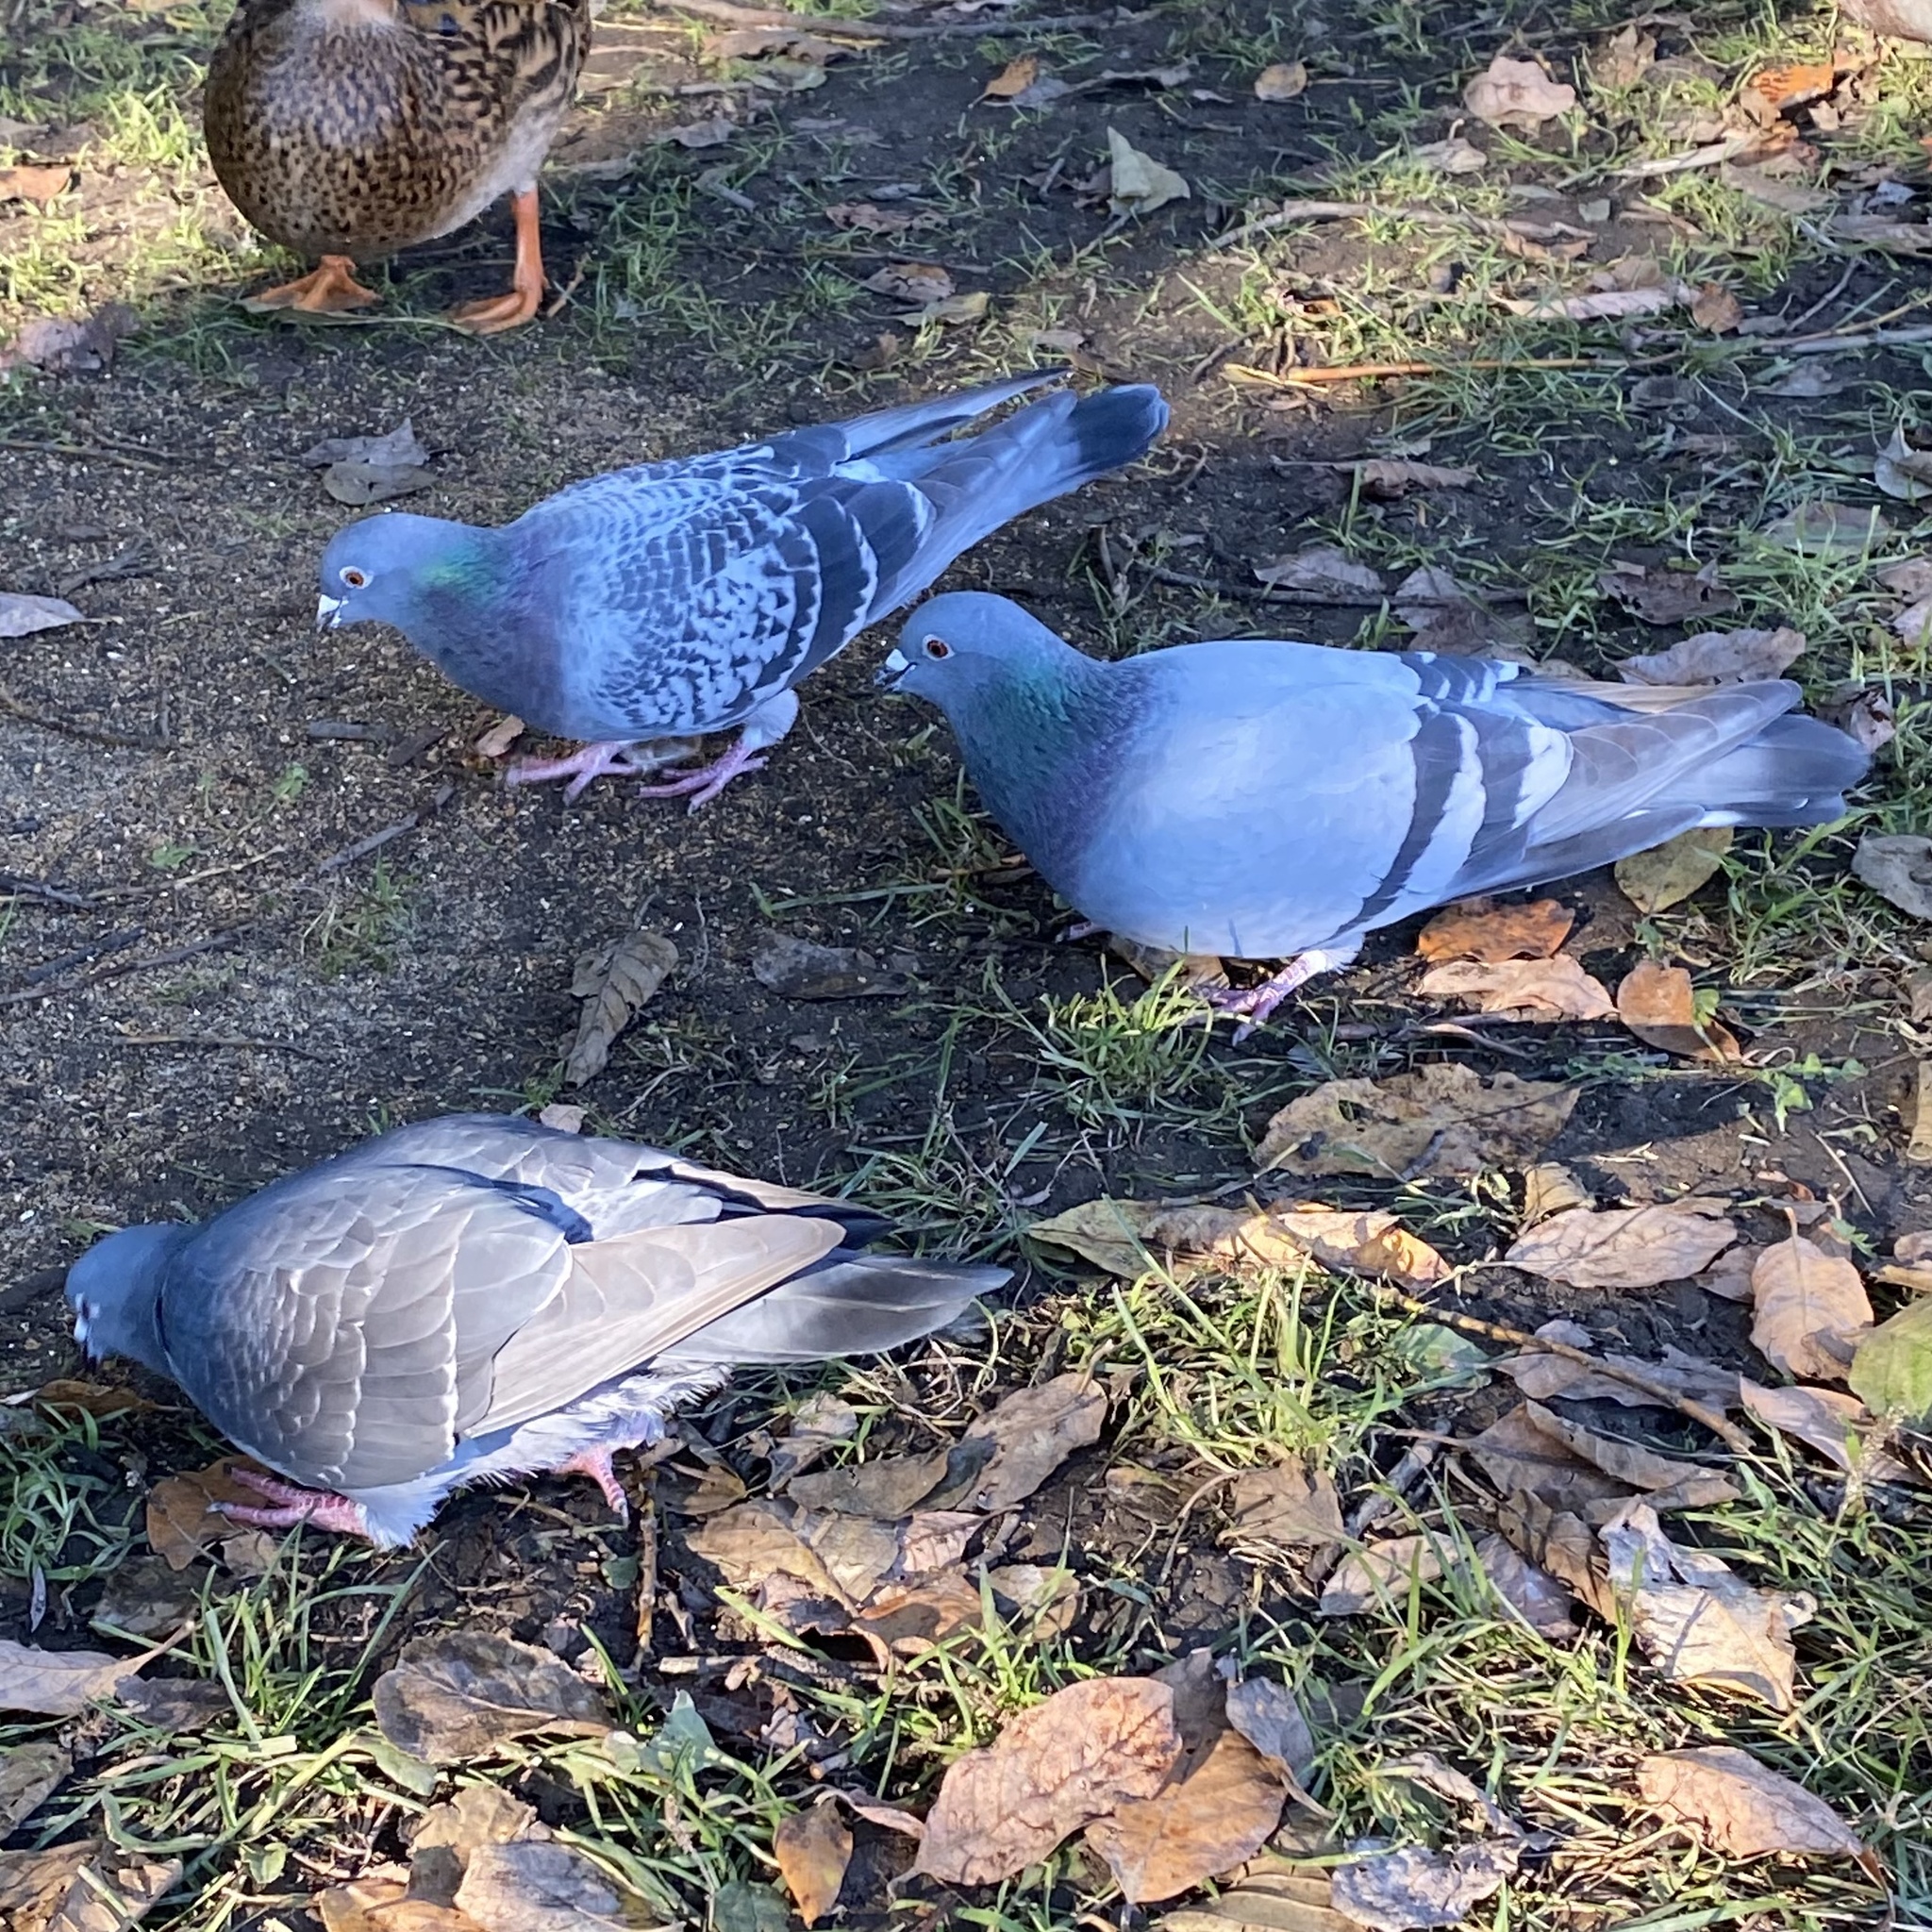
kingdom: Animalia
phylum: Chordata
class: Aves
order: Columbiformes
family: Columbidae
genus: Columba
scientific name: Columba livia
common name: Rock pigeon
